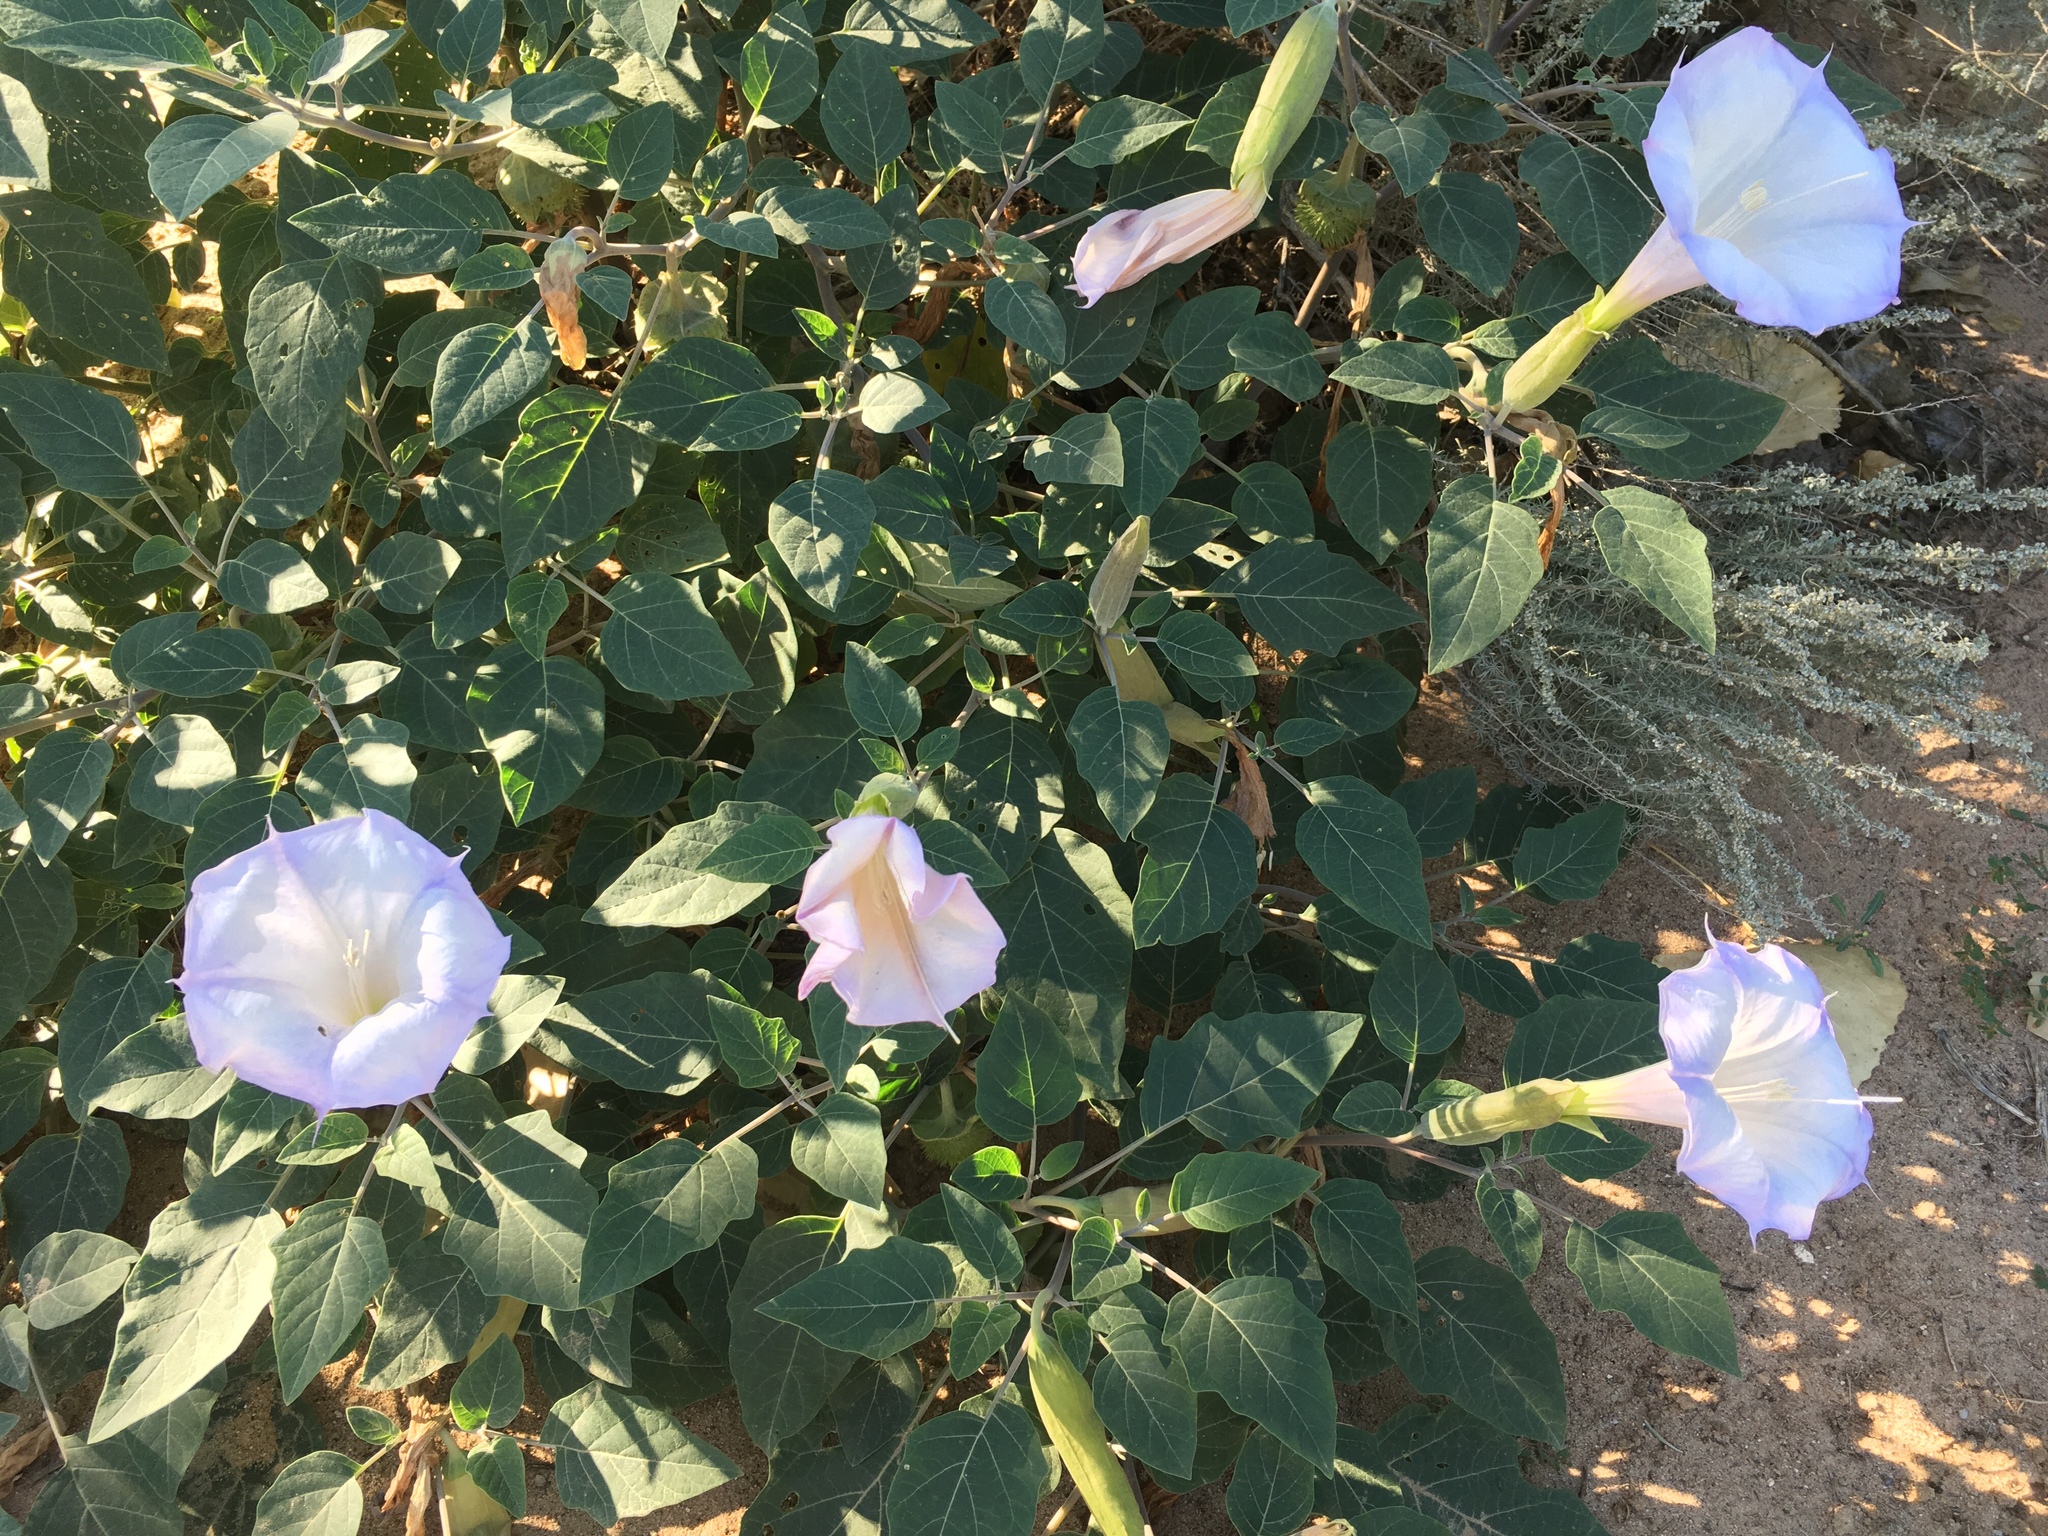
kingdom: Plantae
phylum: Tracheophyta
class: Magnoliopsida
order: Solanales
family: Solanaceae
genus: Datura
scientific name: Datura wrightii
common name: Sacred thorn-apple
